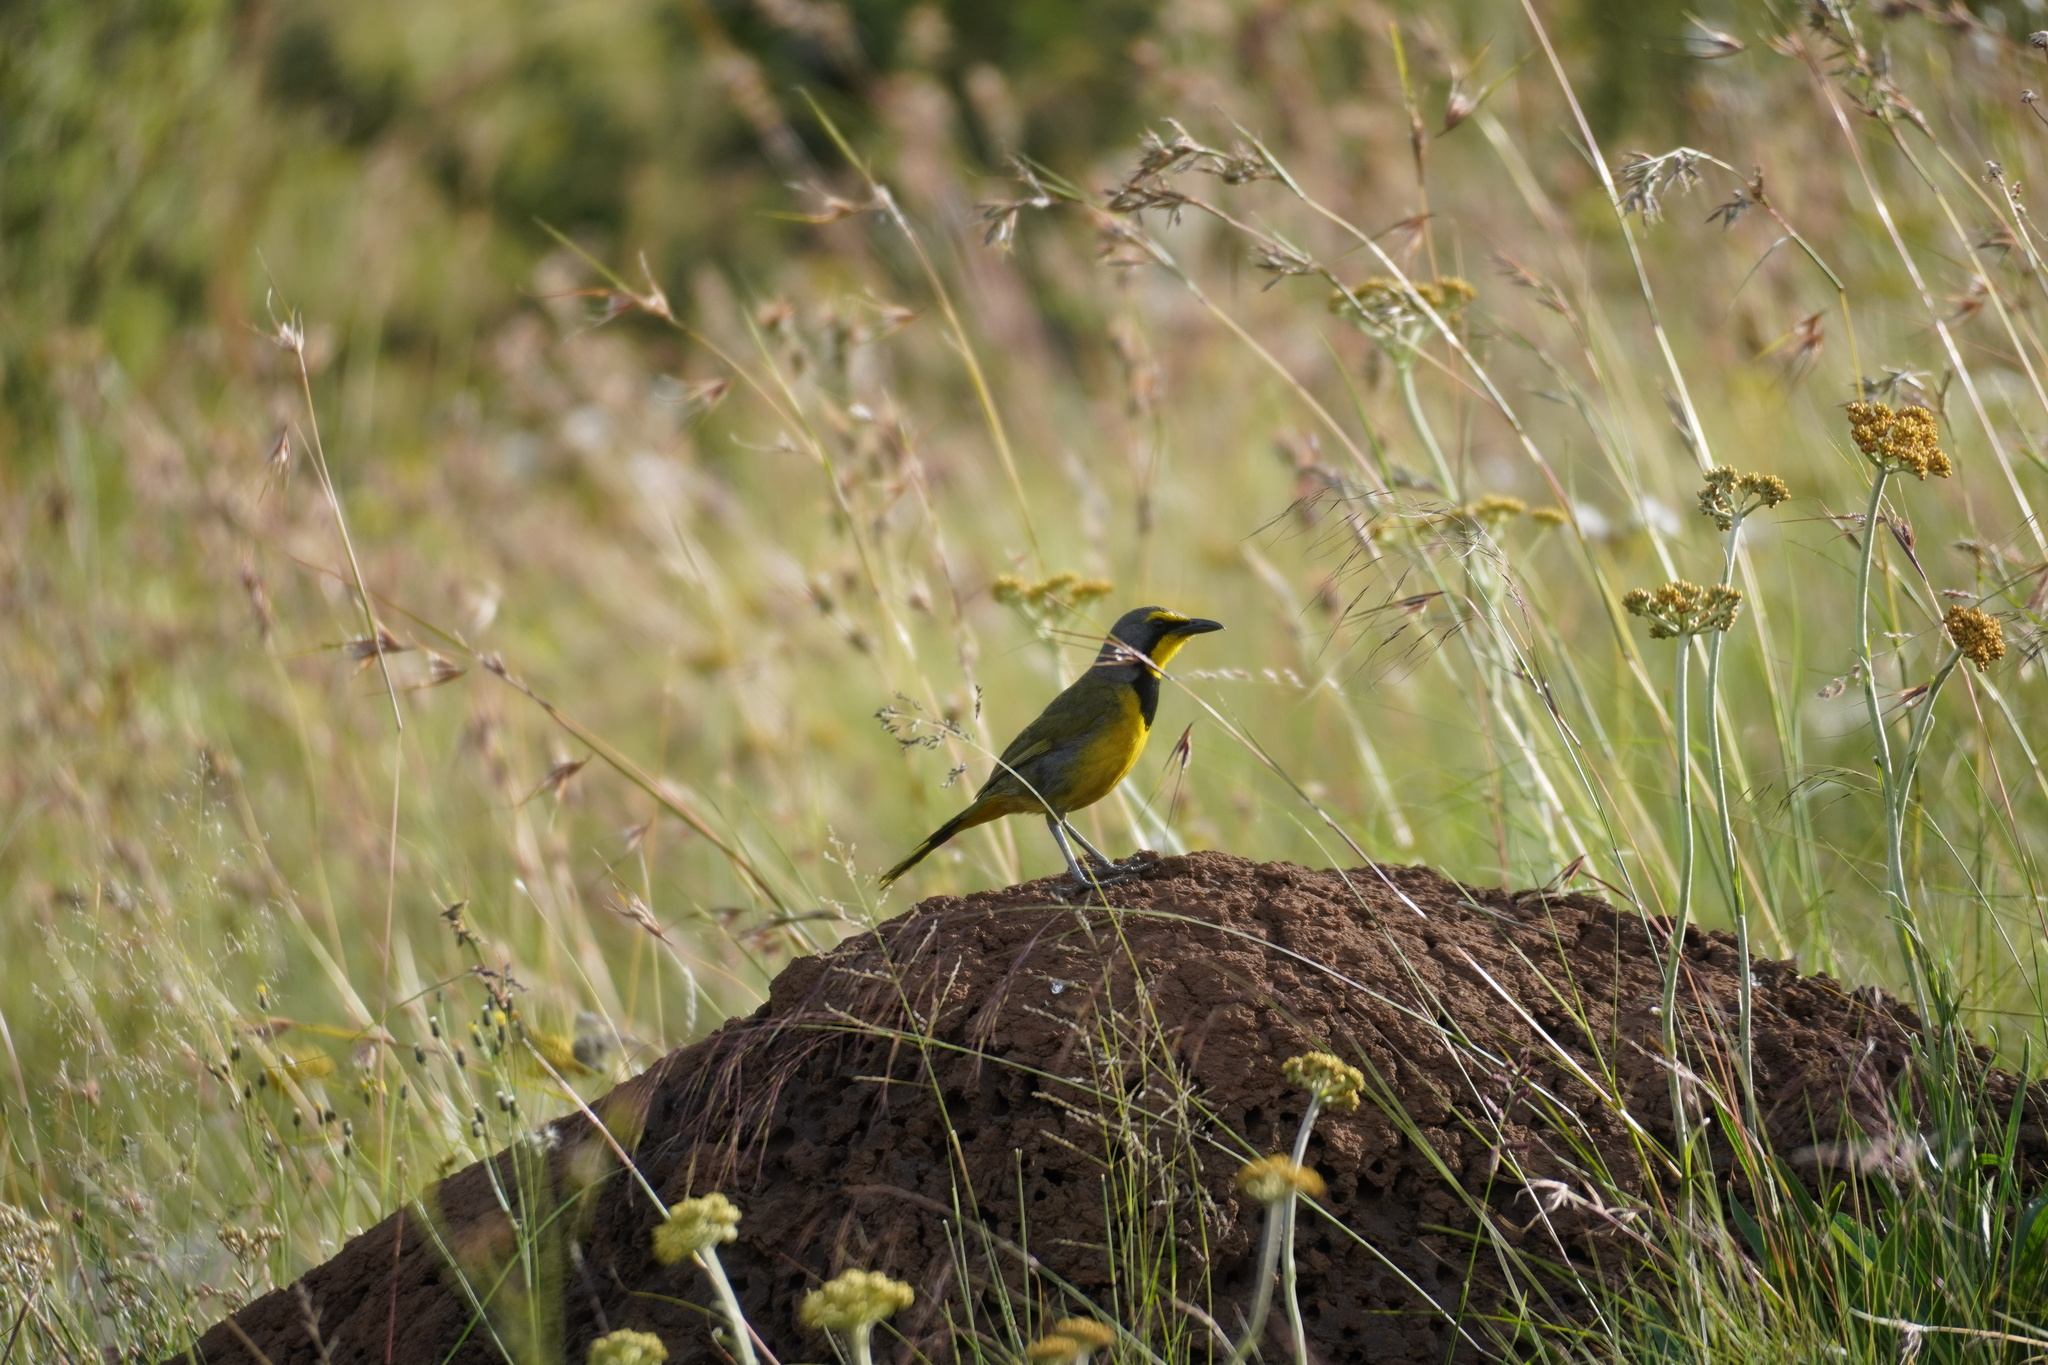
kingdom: Animalia
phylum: Chordata
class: Aves
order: Passeriformes
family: Malaconotidae
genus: Telophorus
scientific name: Telophorus zeylonus
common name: Bokmakierie
